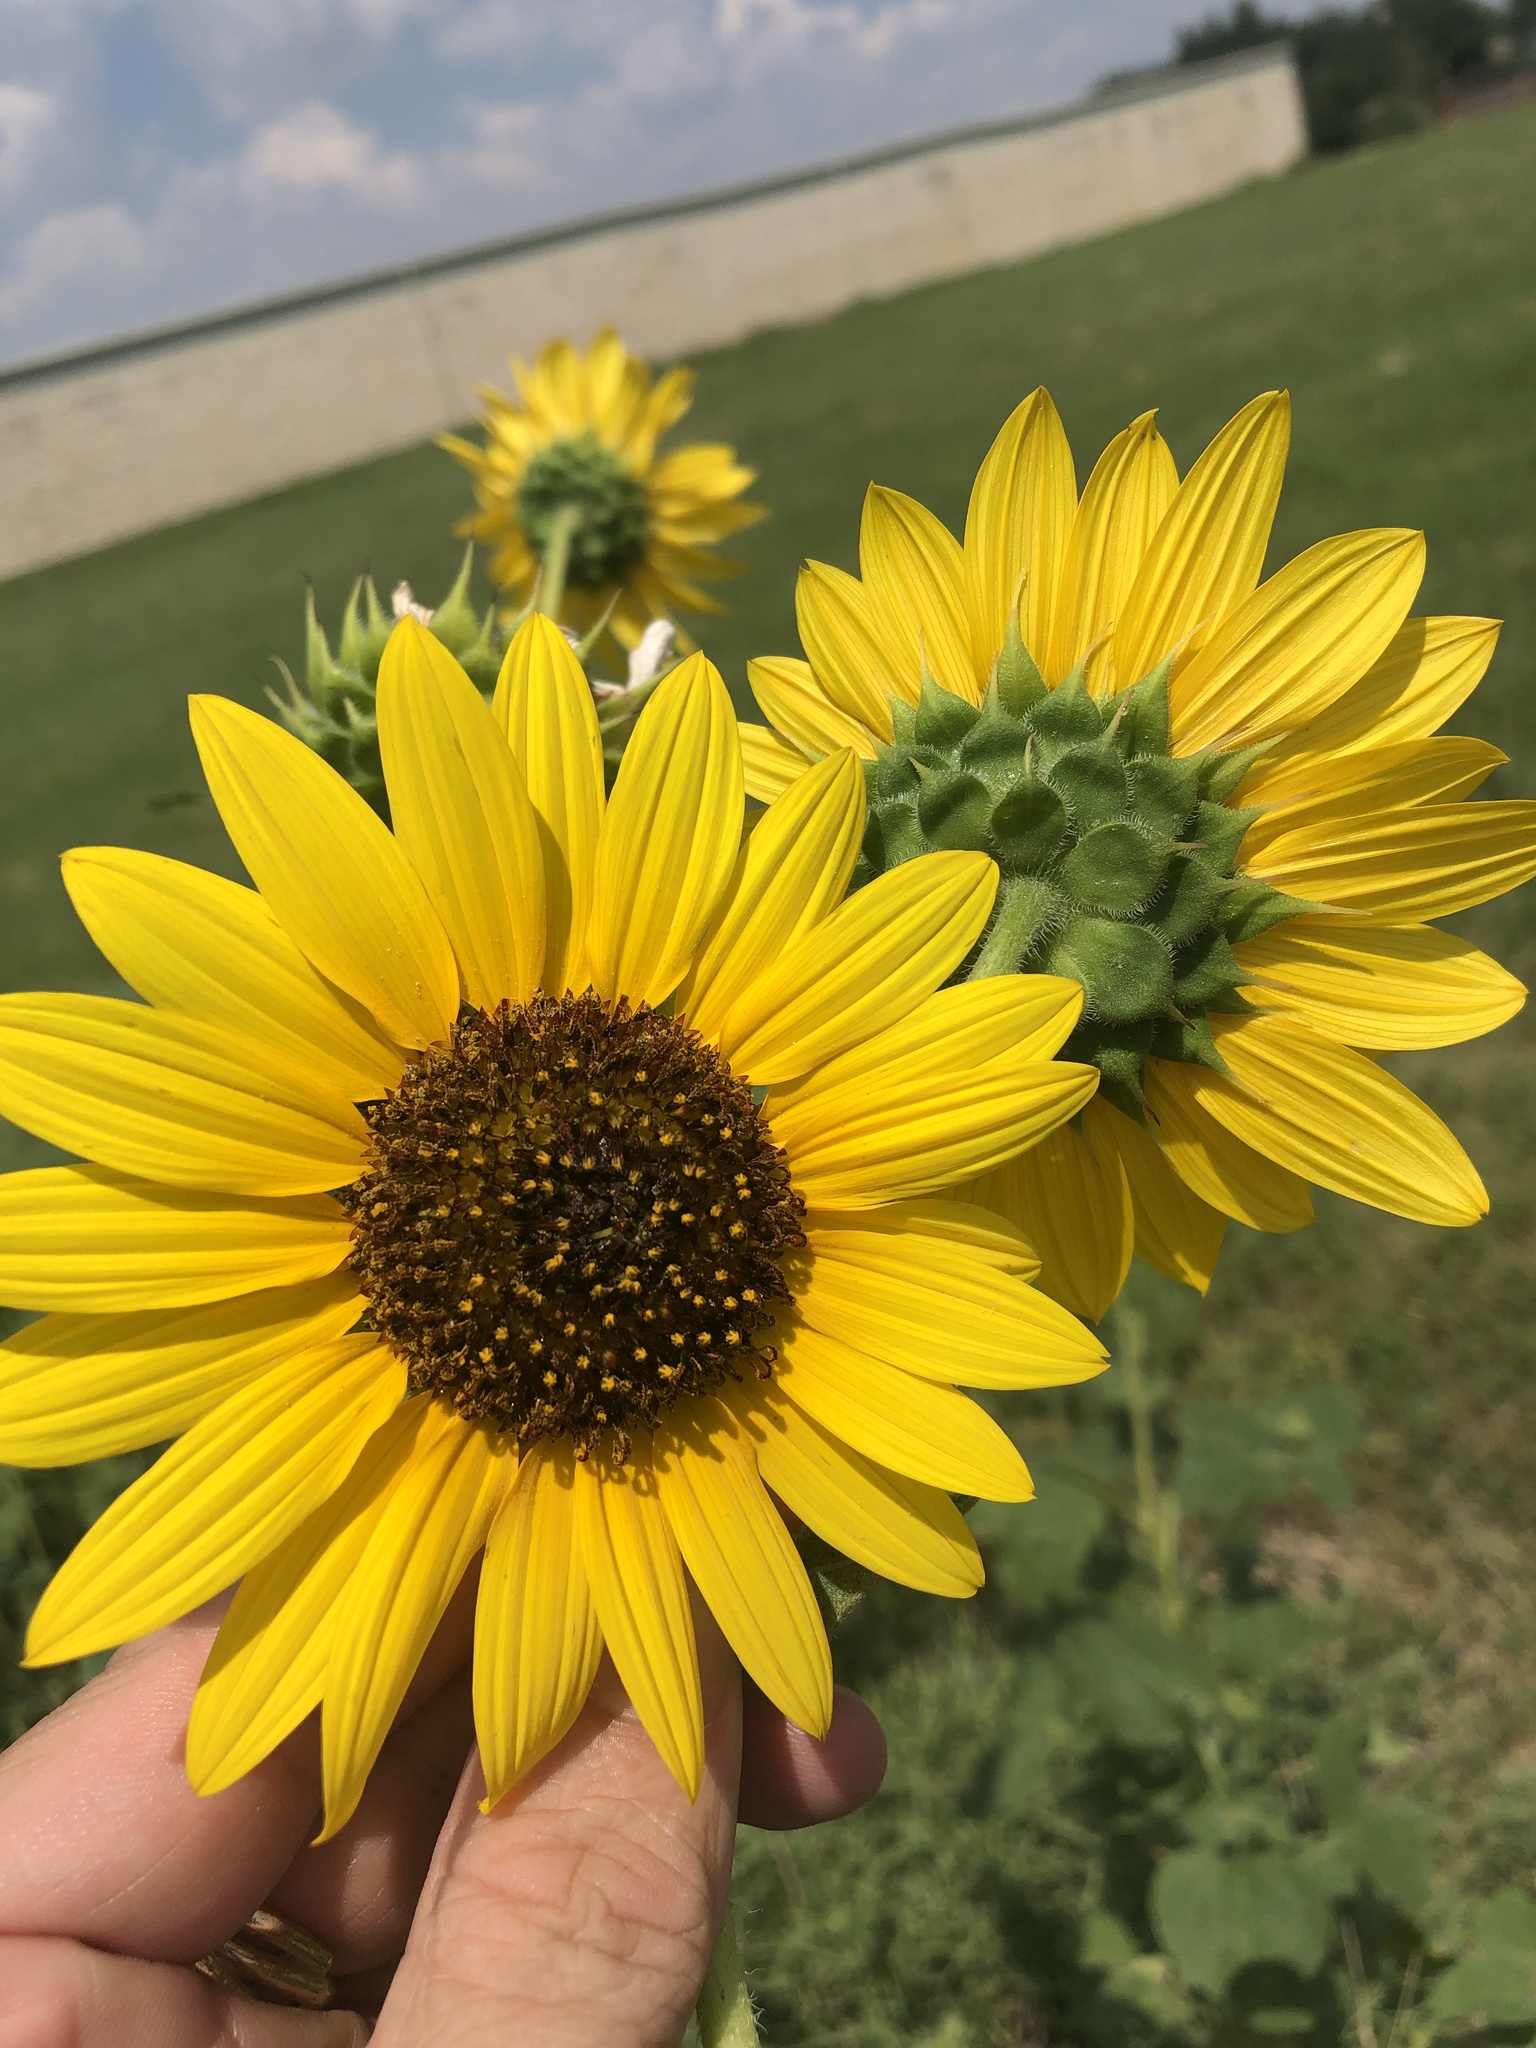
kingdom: Plantae
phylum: Tracheophyta
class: Magnoliopsida
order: Asterales
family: Asteraceae
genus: Helianthus
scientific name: Helianthus annuus
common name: Sunflower
